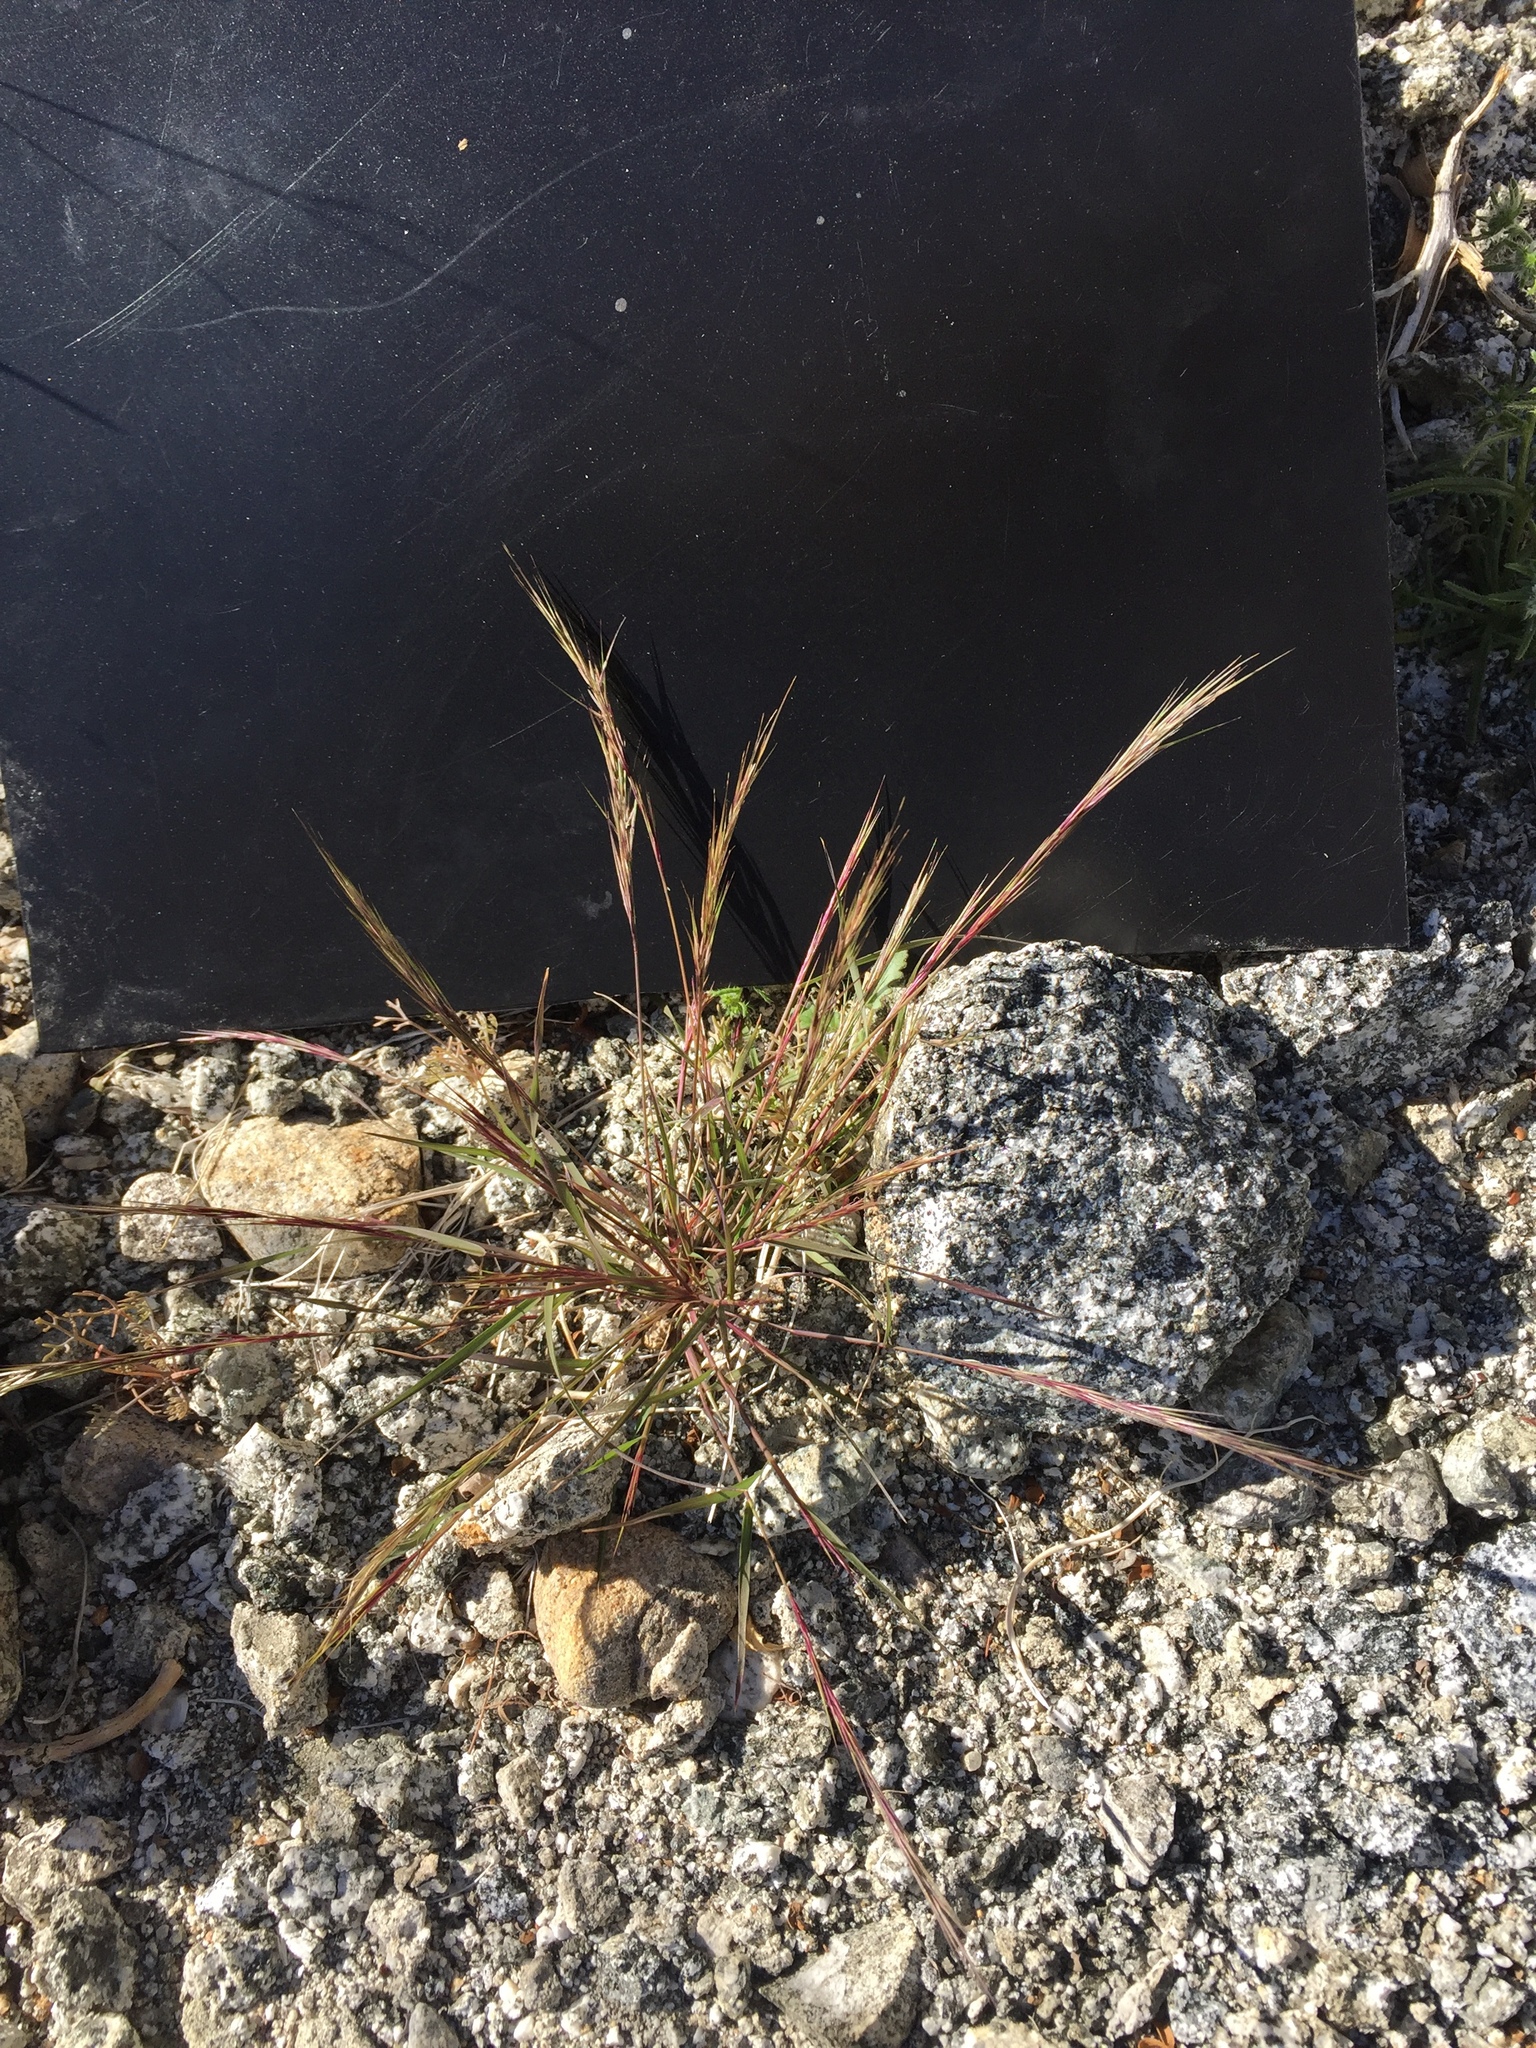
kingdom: Plantae
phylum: Tracheophyta
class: Liliopsida
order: Poales
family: Poaceae
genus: Aristida
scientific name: Aristida adscensionis
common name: Sixweeks threeawn
